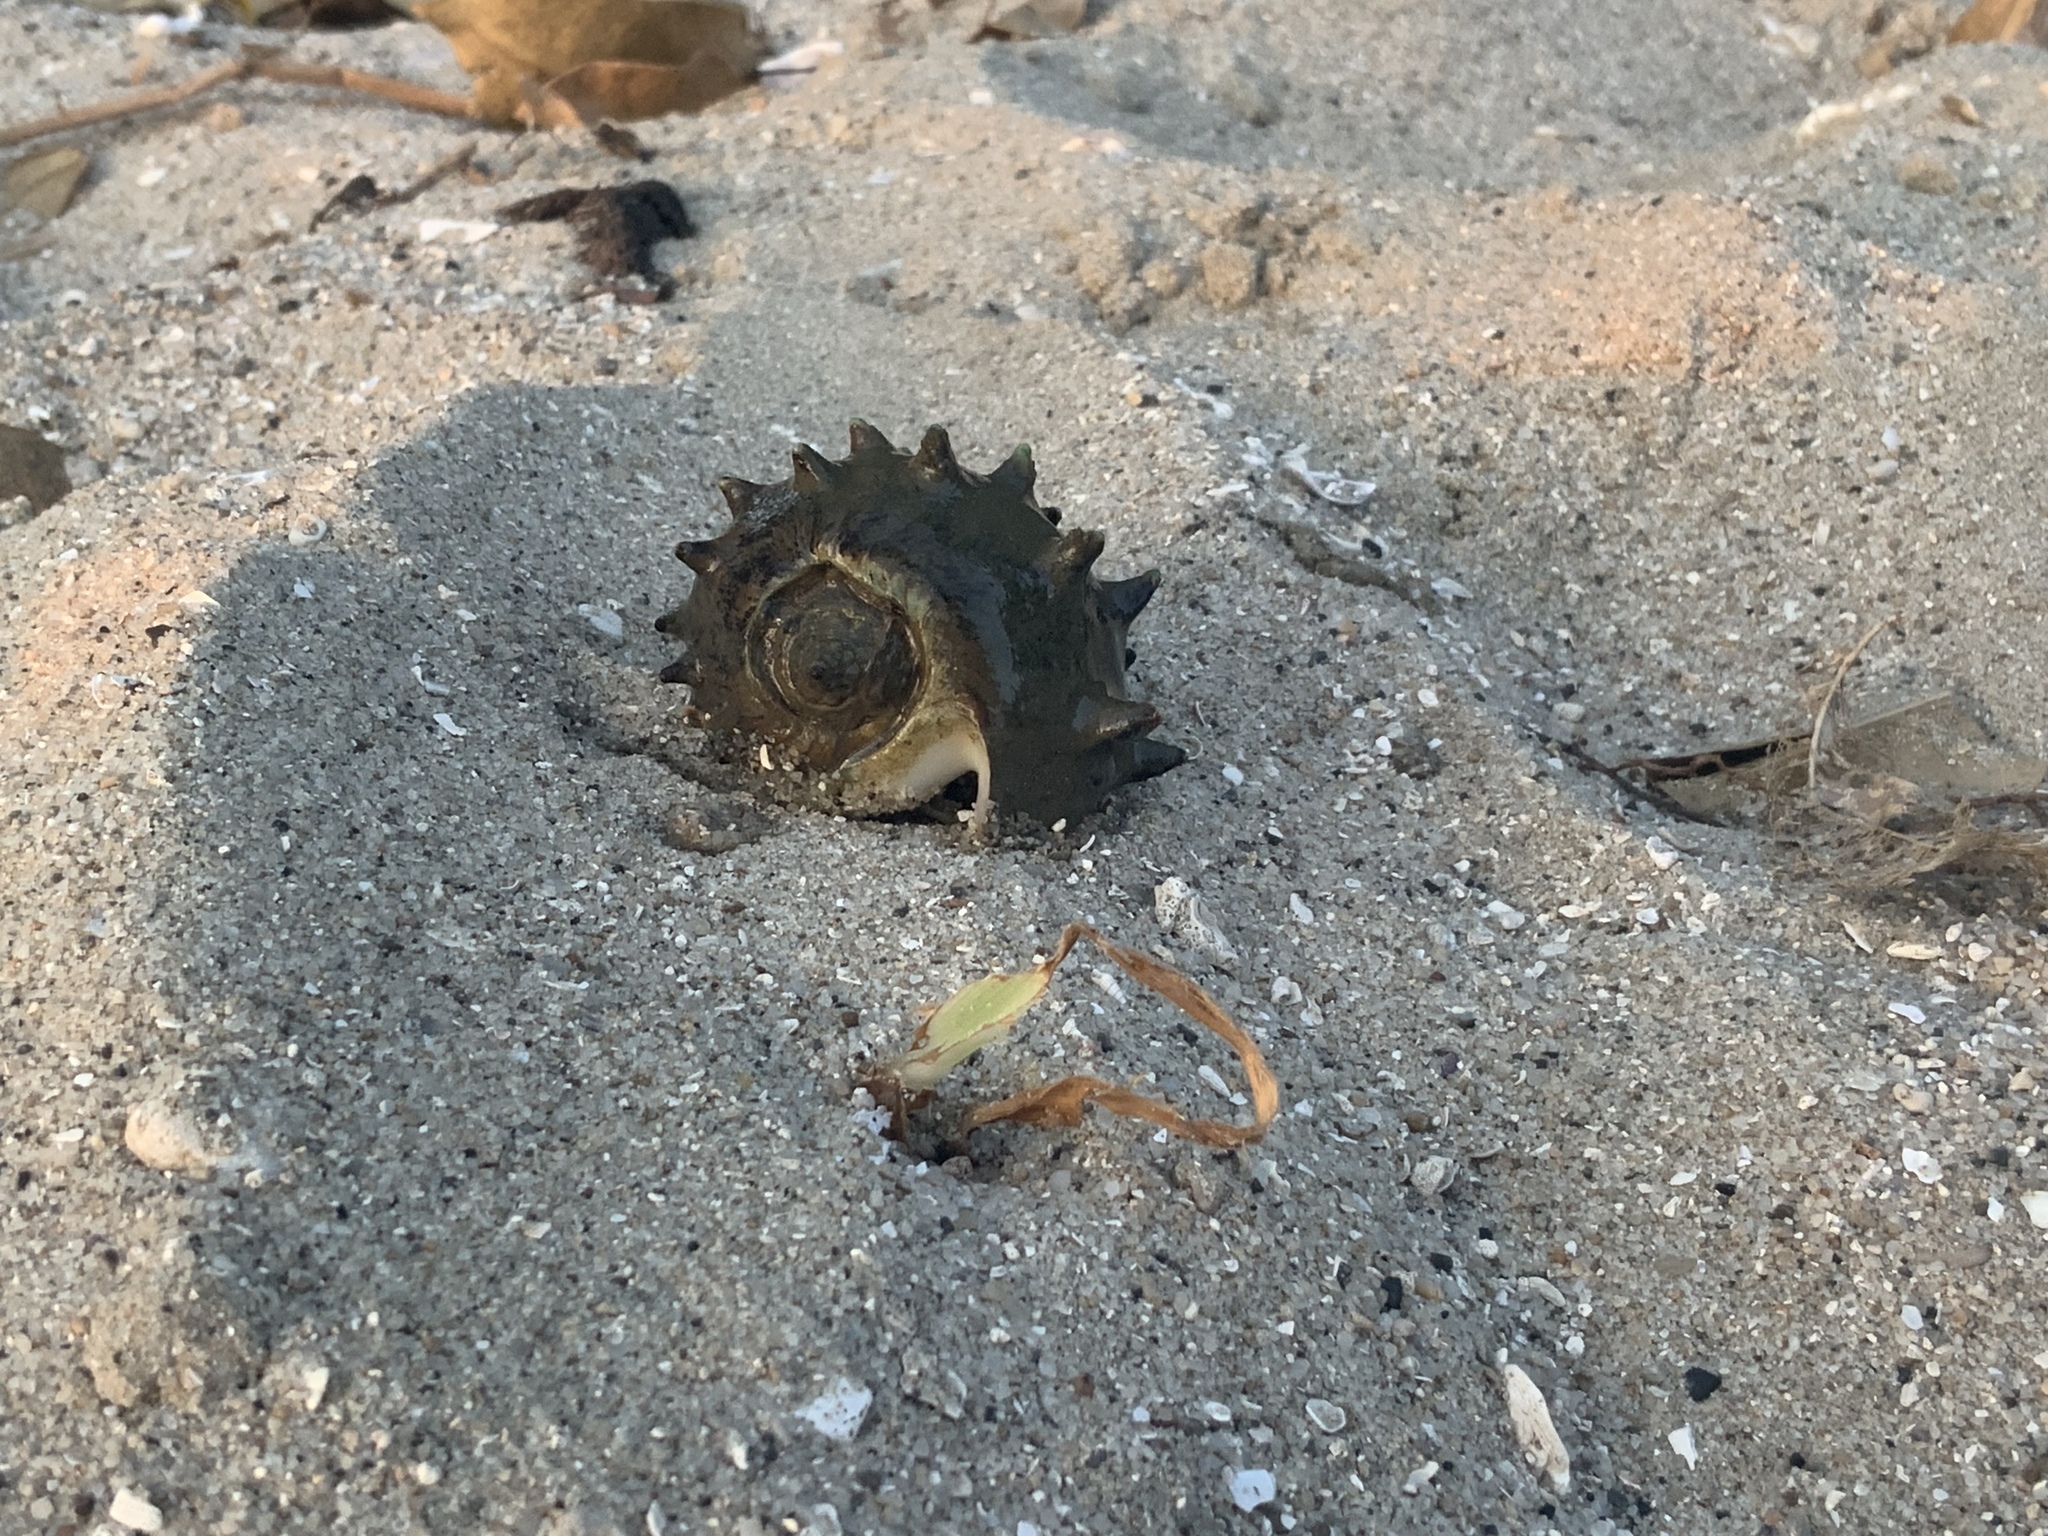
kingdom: Animalia
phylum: Mollusca
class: Gastropoda
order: Neogastropoda
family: Melongenidae
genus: Melongena
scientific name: Melongena melongena
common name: West indian crown conch
